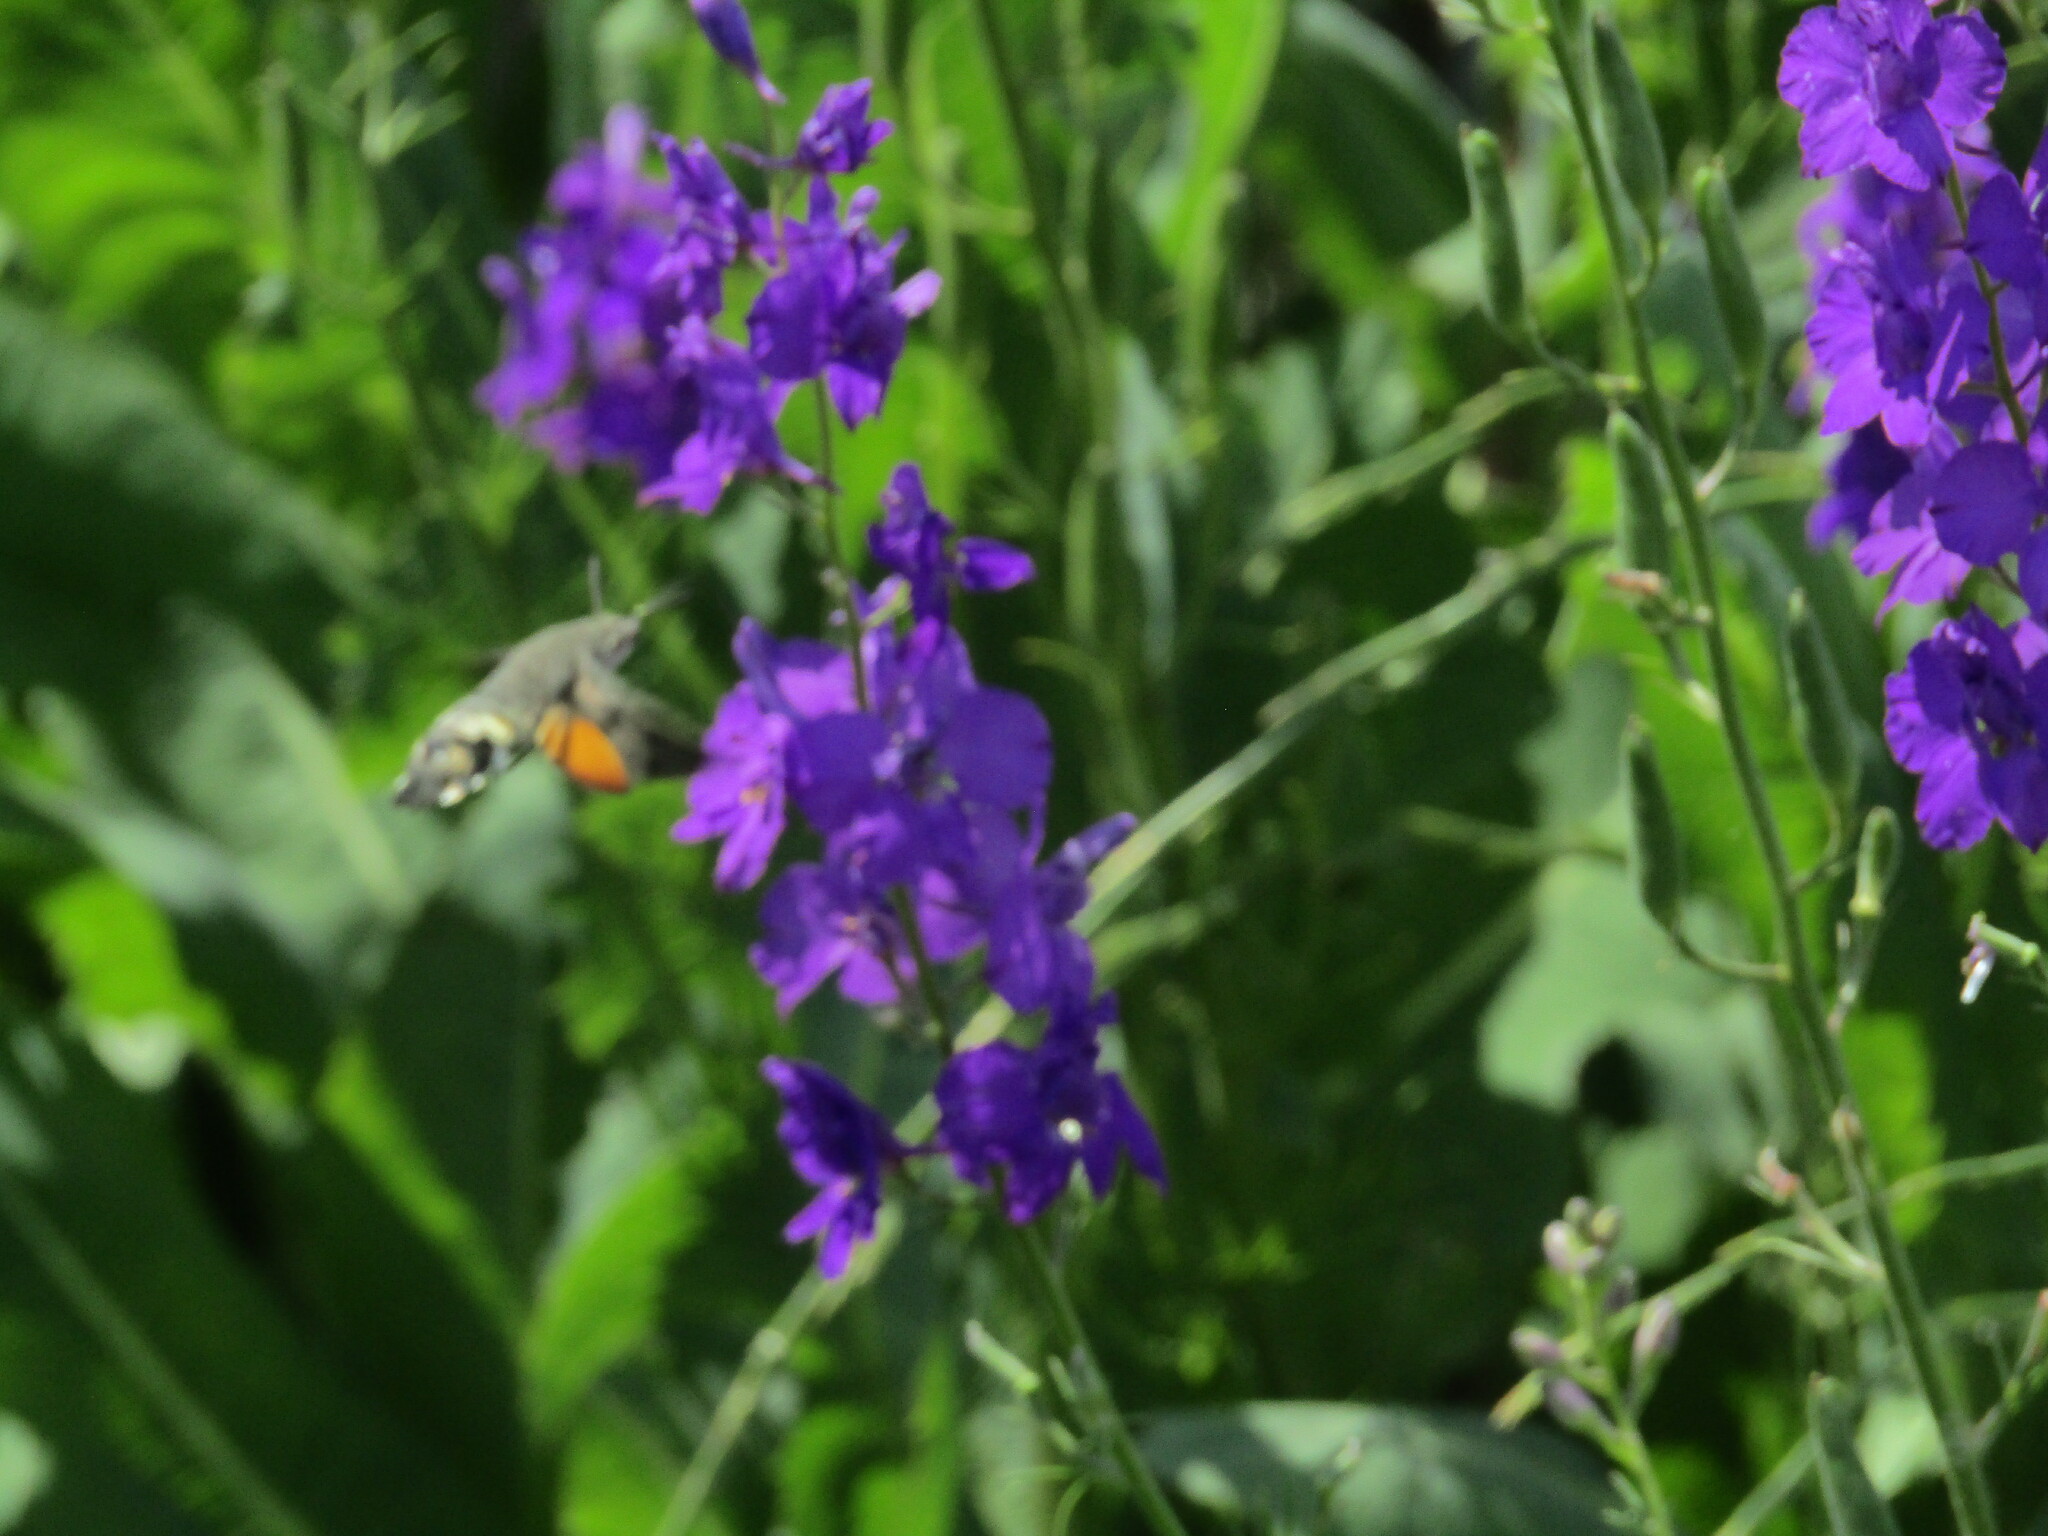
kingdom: Animalia
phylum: Arthropoda
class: Insecta
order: Lepidoptera
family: Sphingidae
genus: Macroglossum
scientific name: Macroglossum stellatarum
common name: Humming-bird hawk-moth
